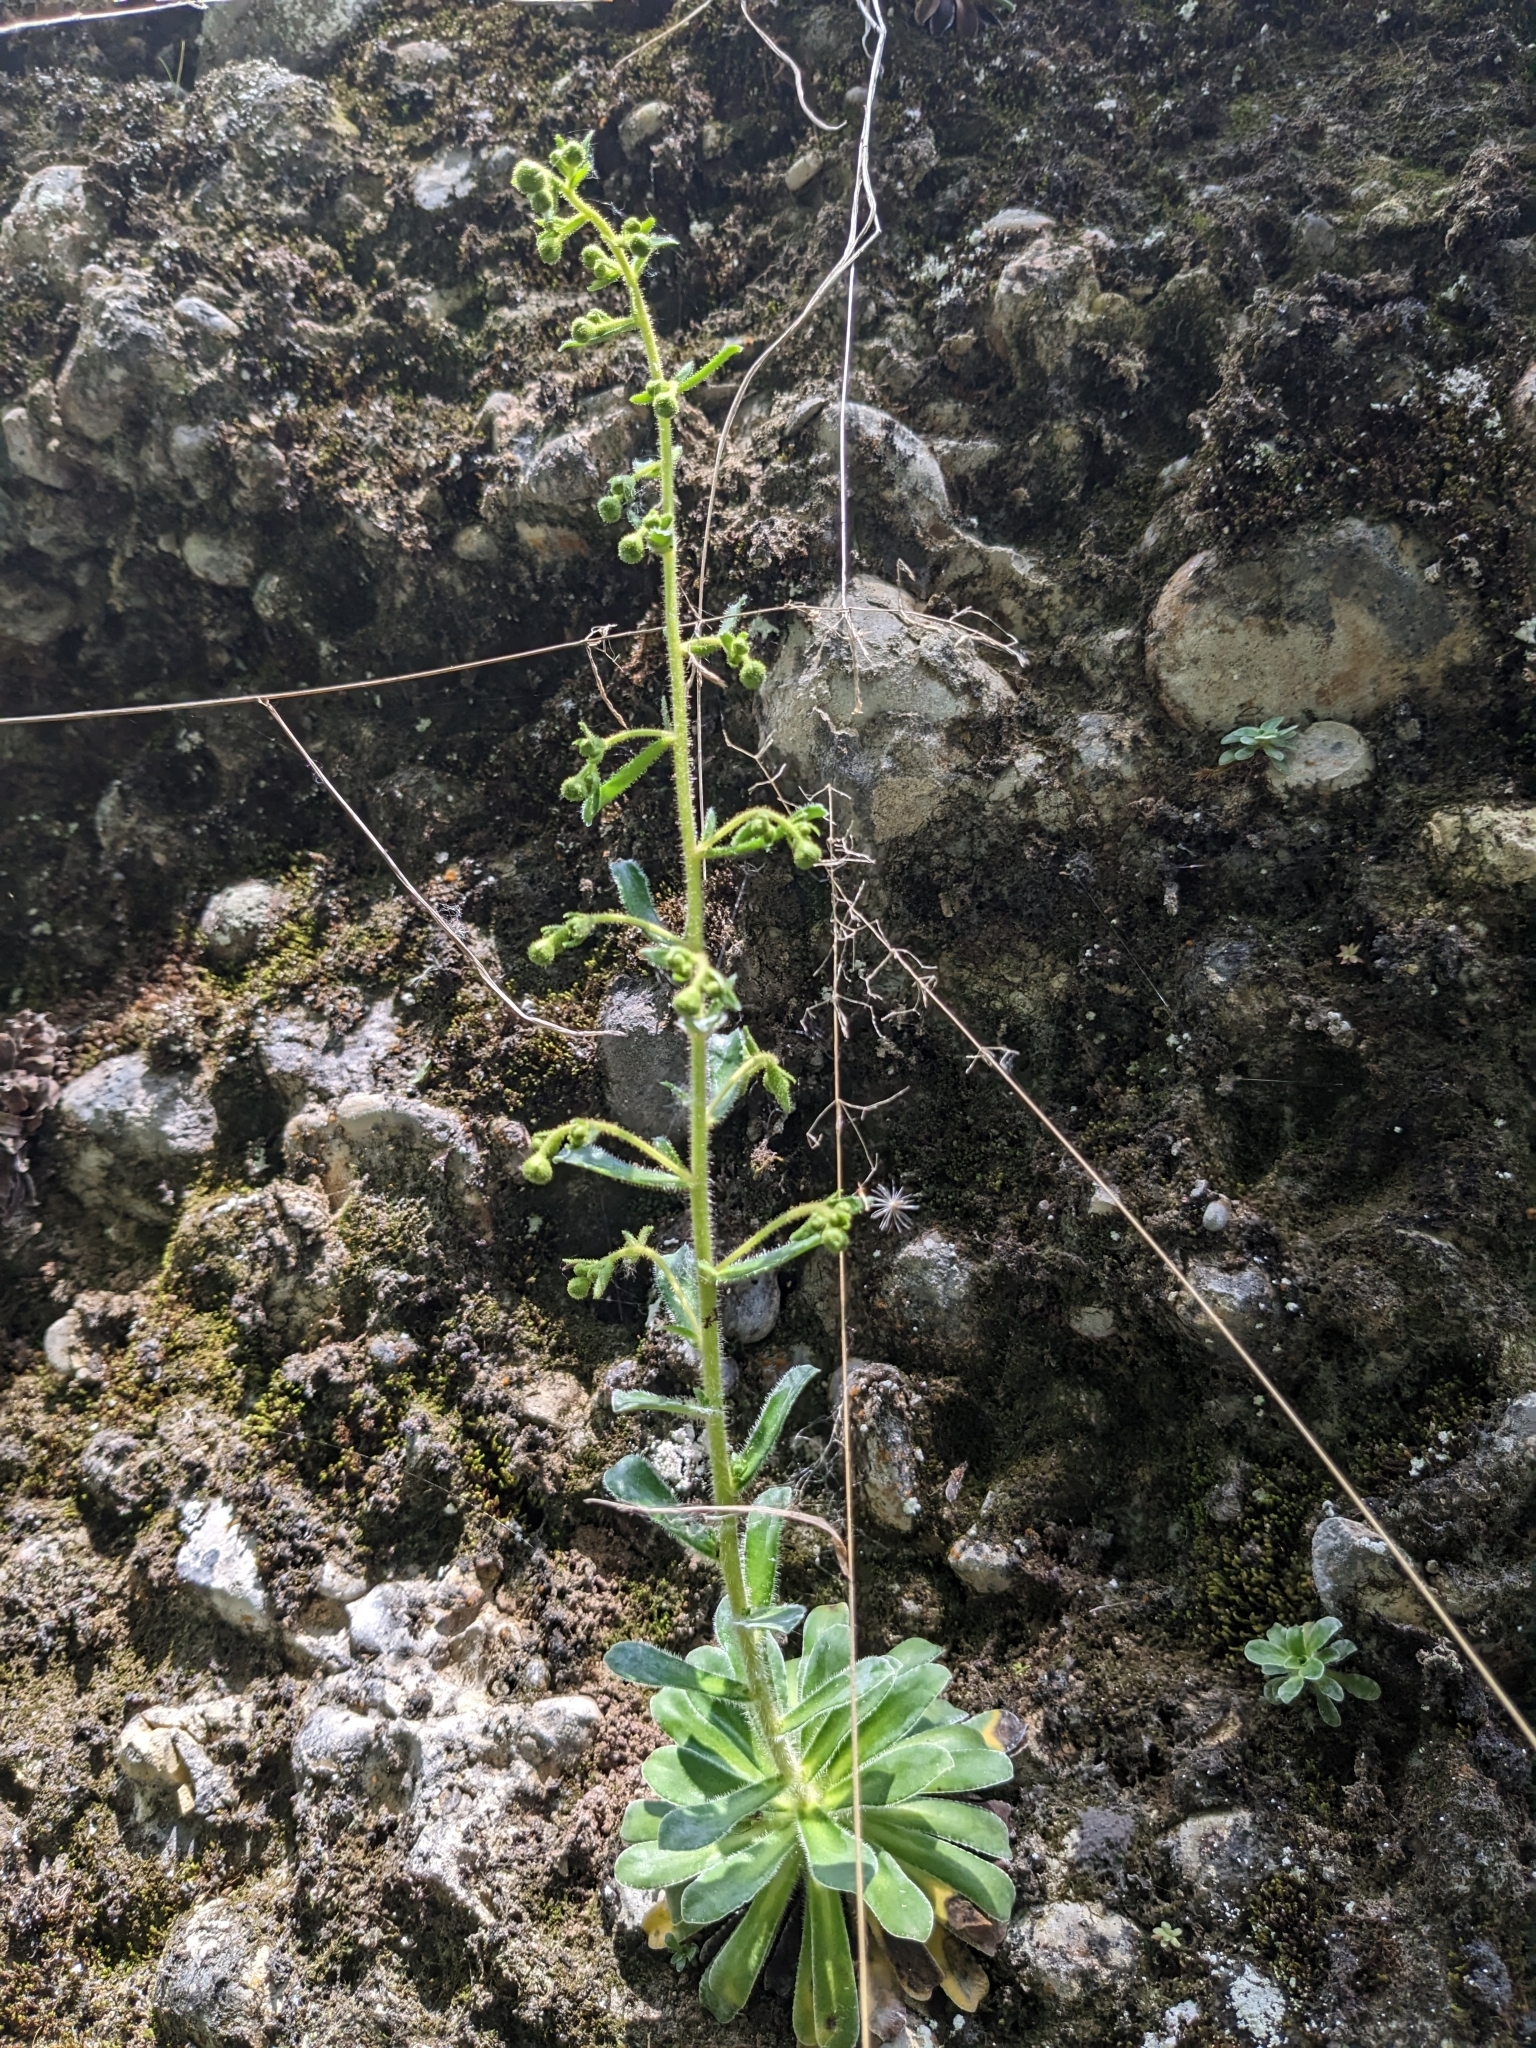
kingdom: Plantae
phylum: Tracheophyta
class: Magnoliopsida
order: Saxifragales
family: Saxifragaceae
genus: Saxifraga
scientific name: Saxifraga mutata
